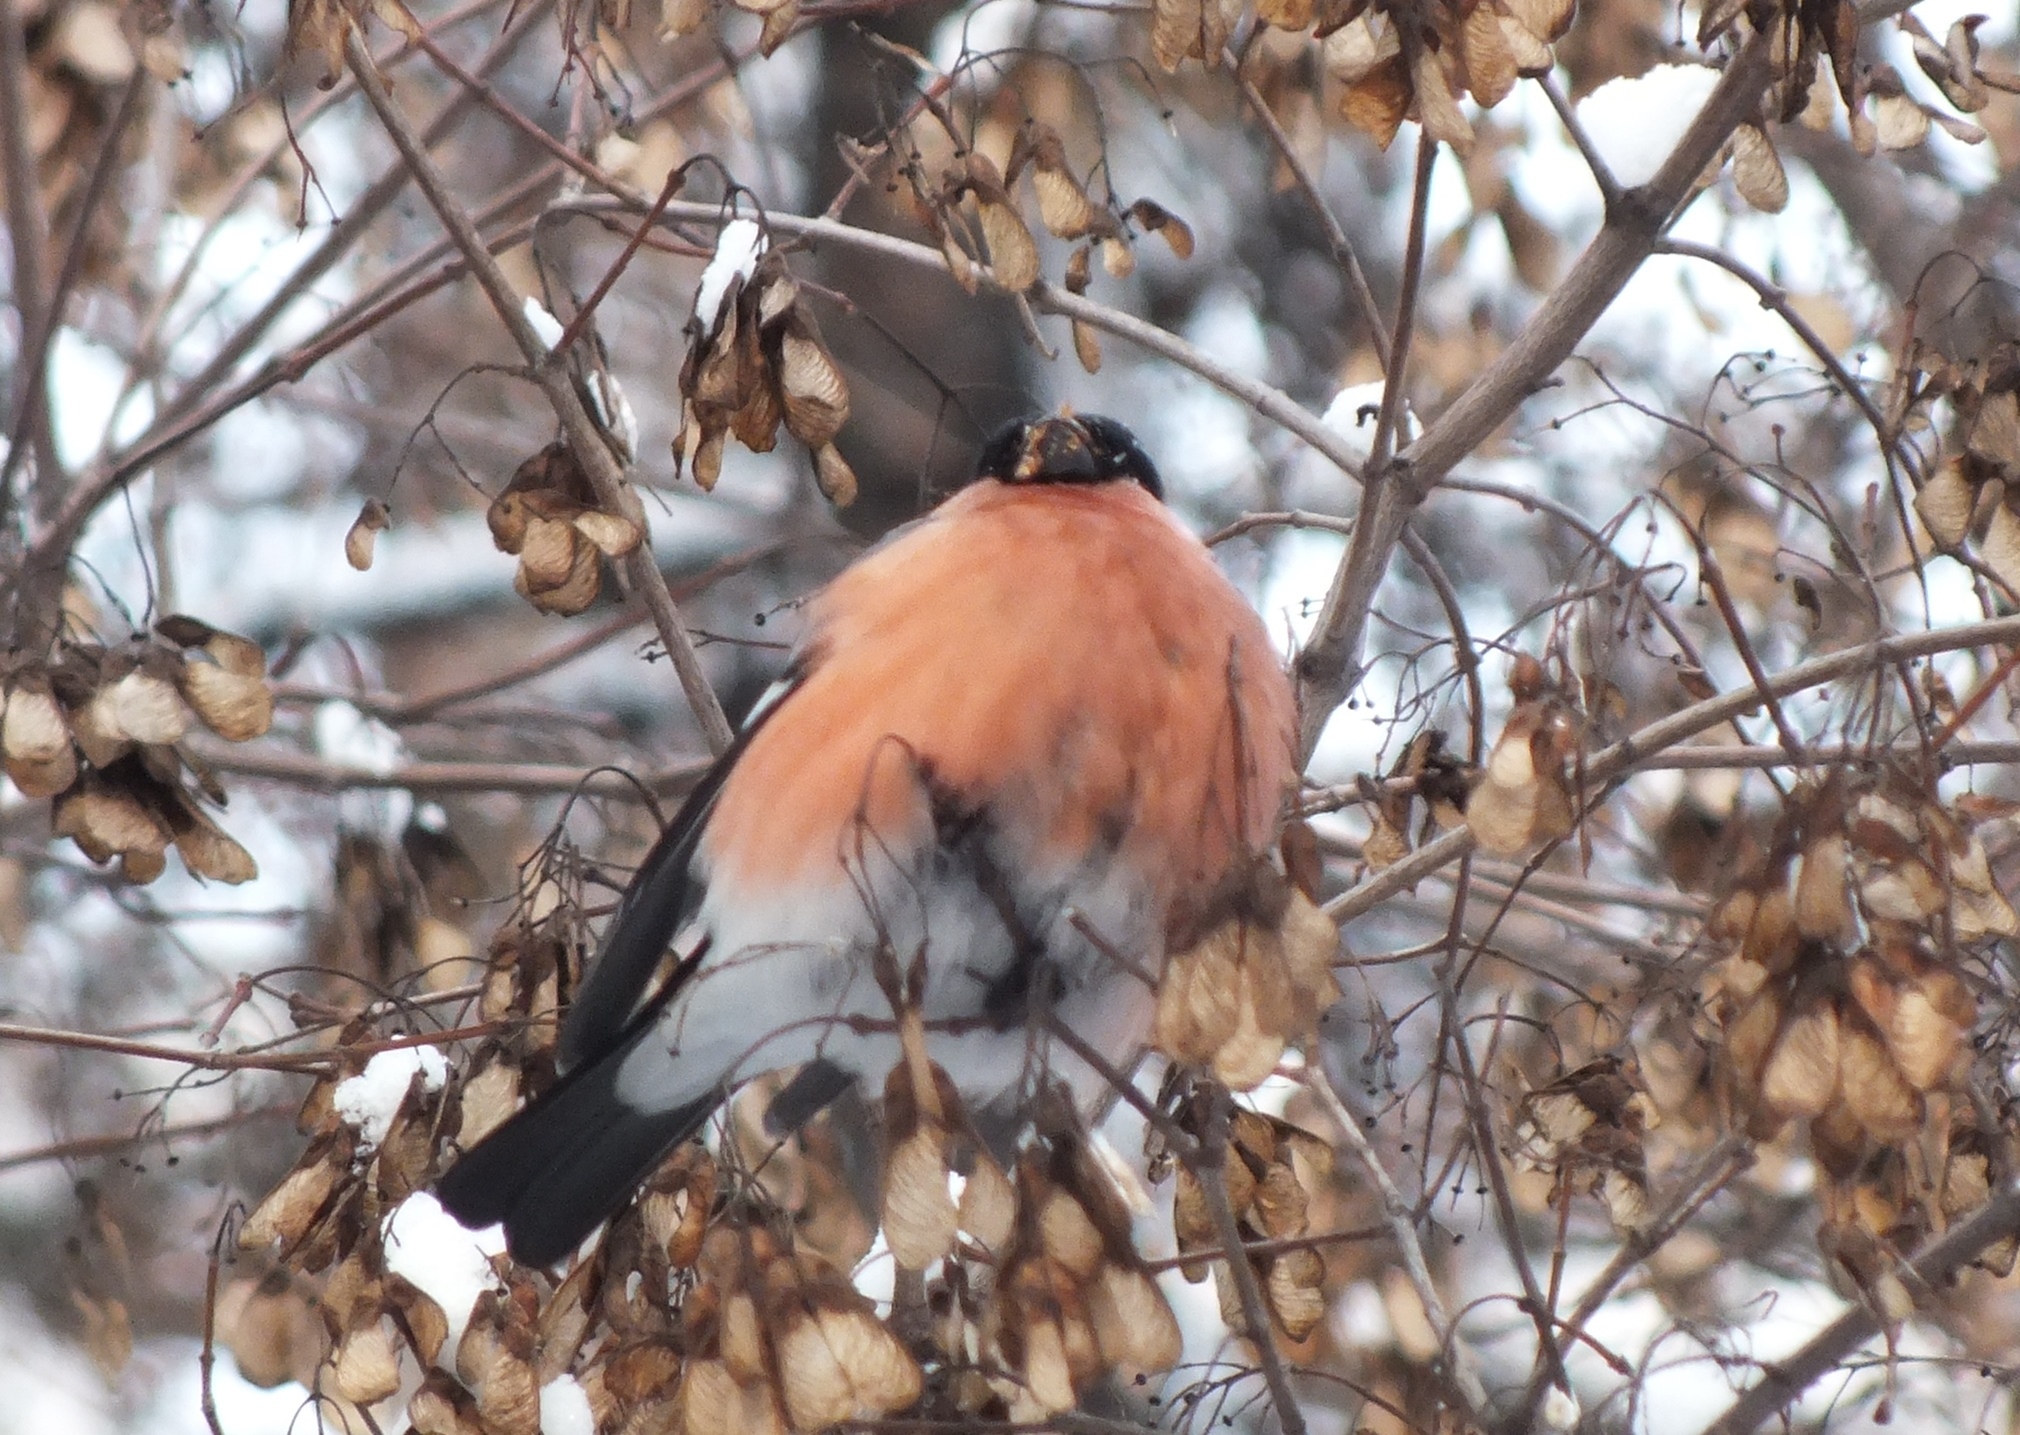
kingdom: Animalia
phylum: Chordata
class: Aves
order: Passeriformes
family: Fringillidae
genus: Pyrrhula
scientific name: Pyrrhula pyrrhula
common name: Eurasian bullfinch
